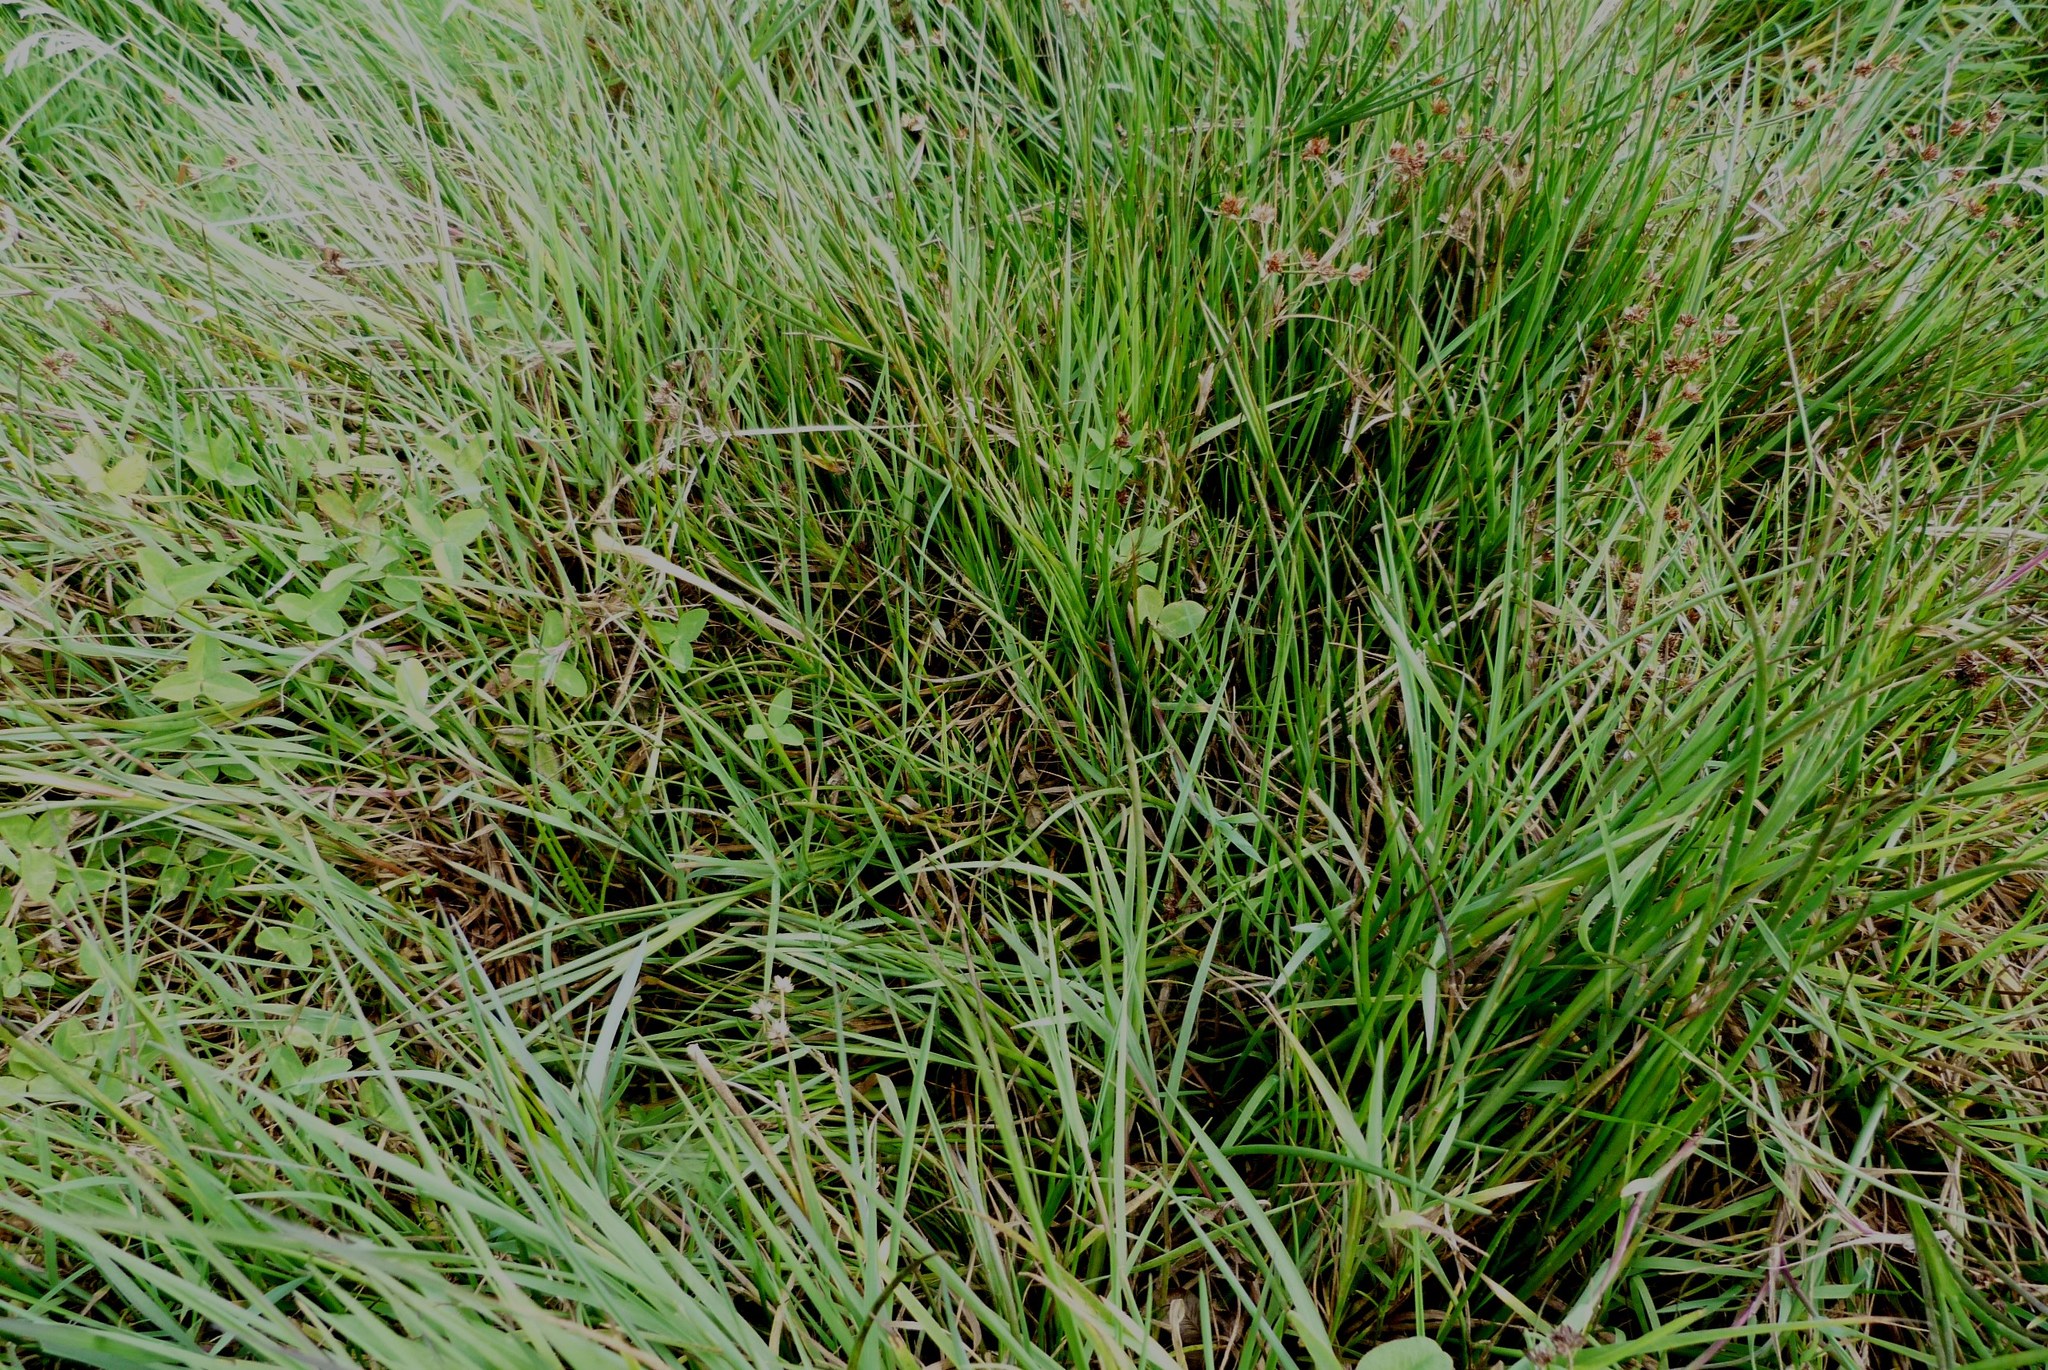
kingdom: Plantae
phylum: Tracheophyta
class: Liliopsida
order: Poales
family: Juncaceae
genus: Juncus
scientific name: Juncus articulatus
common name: Jointed rush
